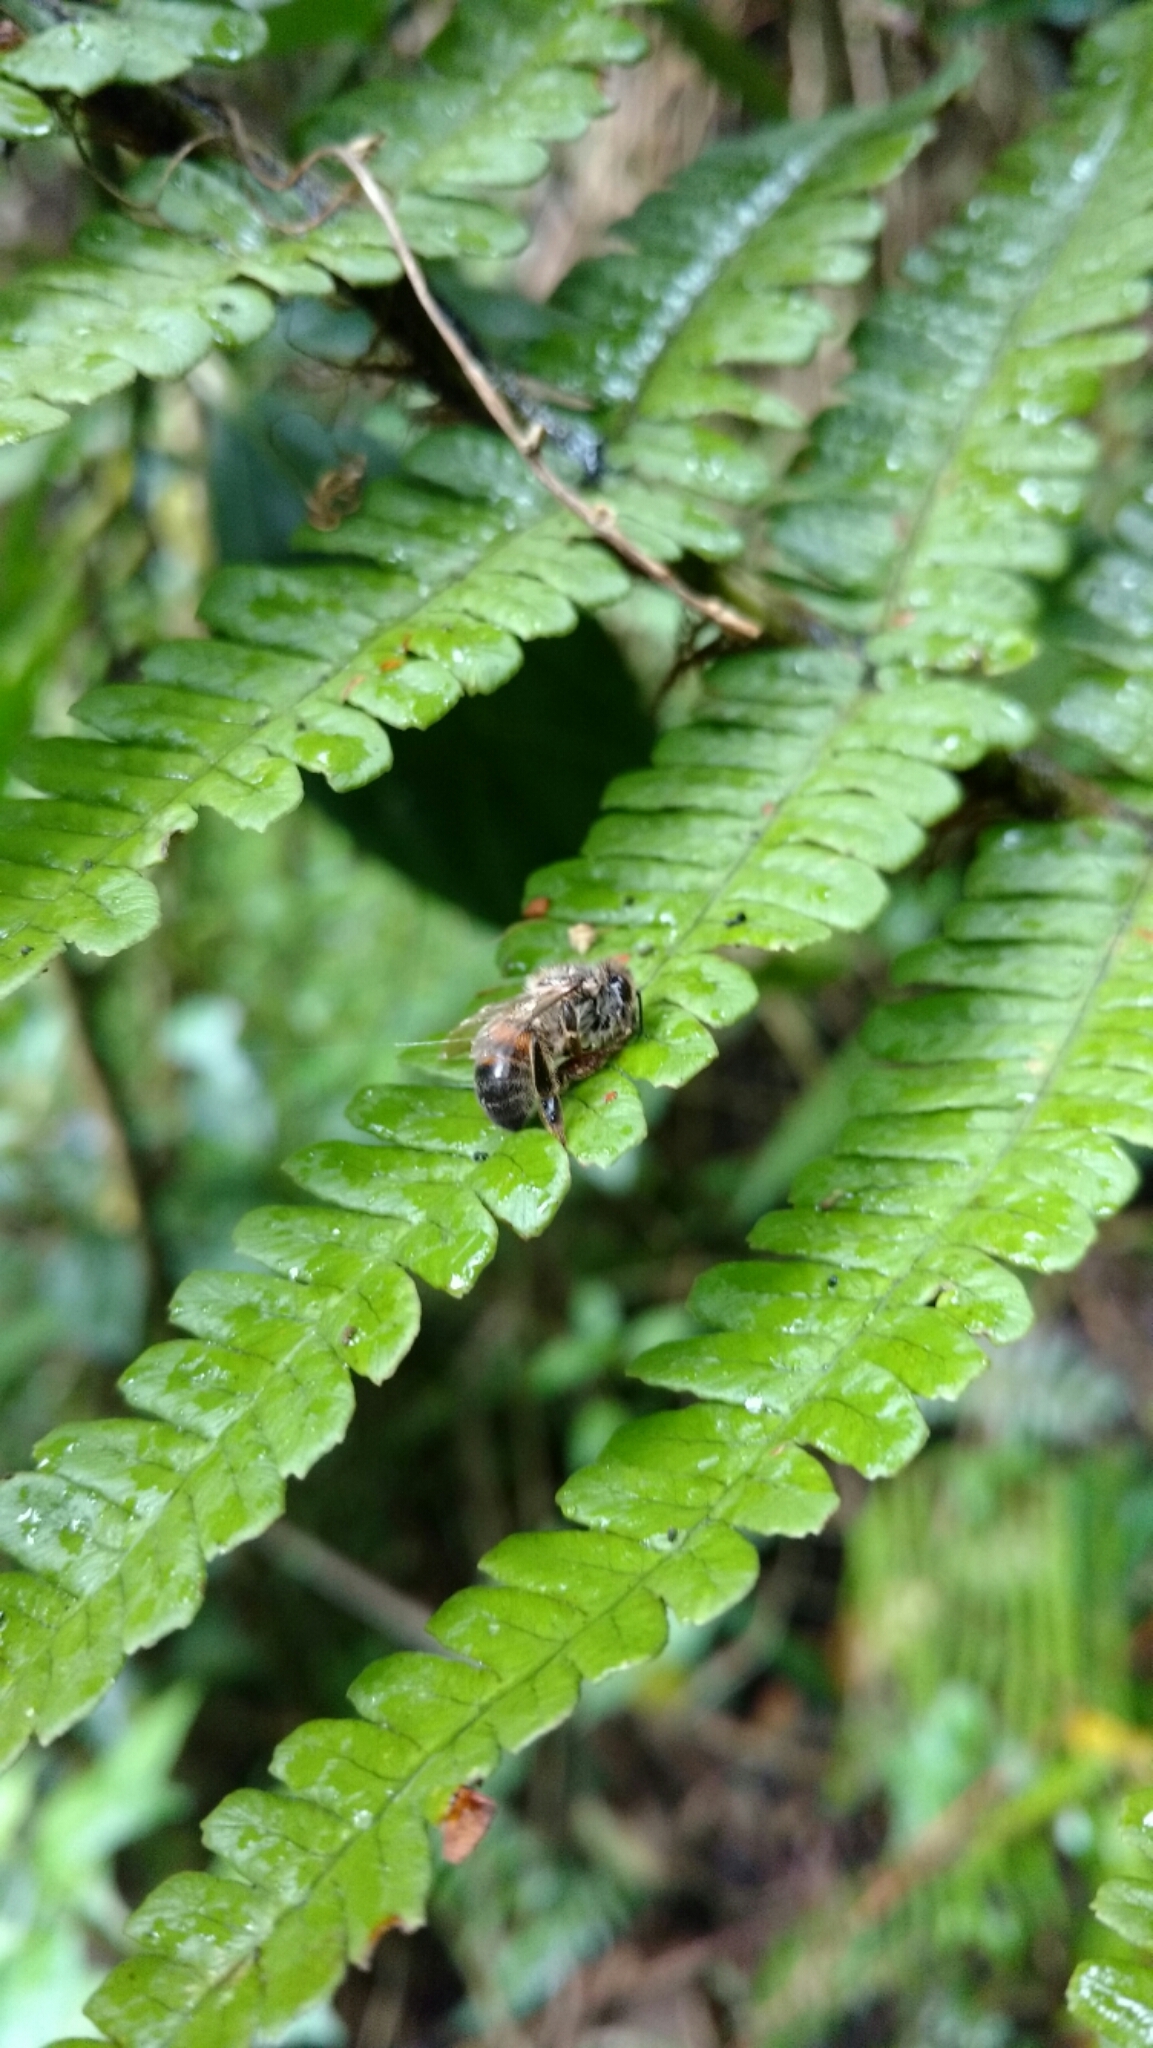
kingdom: Animalia
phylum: Arthropoda
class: Insecta
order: Hymenoptera
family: Apidae
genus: Apis
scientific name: Apis mellifera
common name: Honey bee
